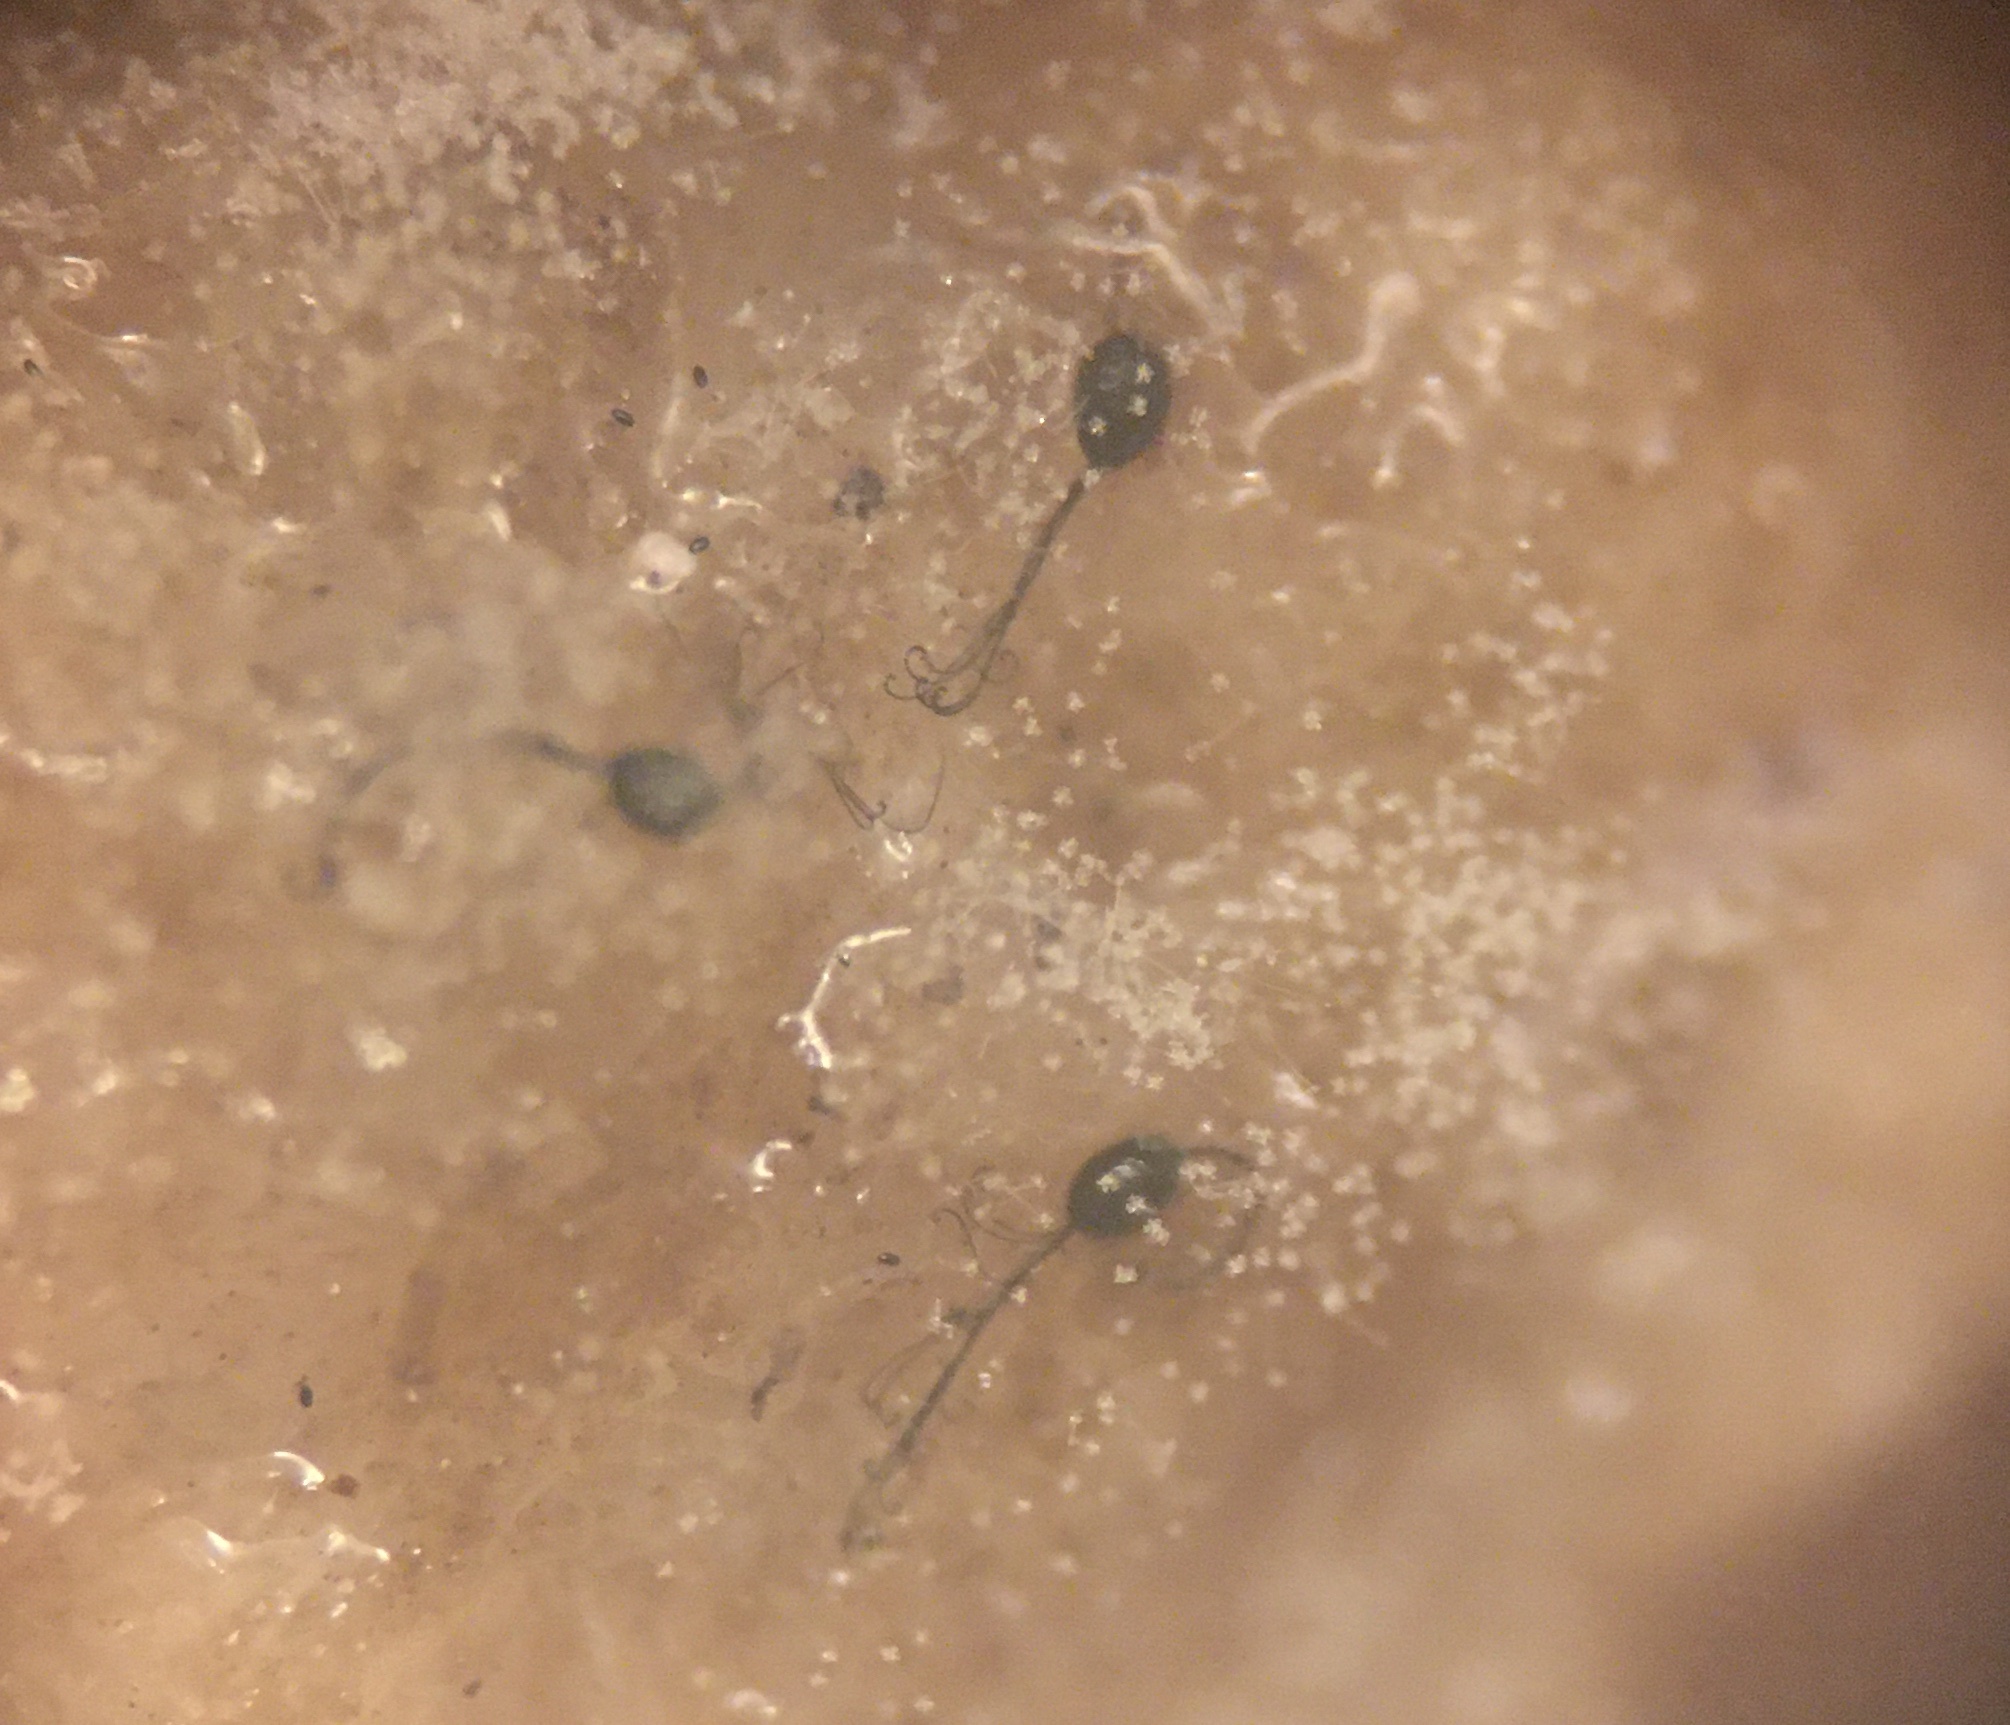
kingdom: Fungi
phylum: Ascomycota
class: Sordariomycetes
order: Microascales
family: Microascaceae
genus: Kernia
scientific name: Kernia nitida
